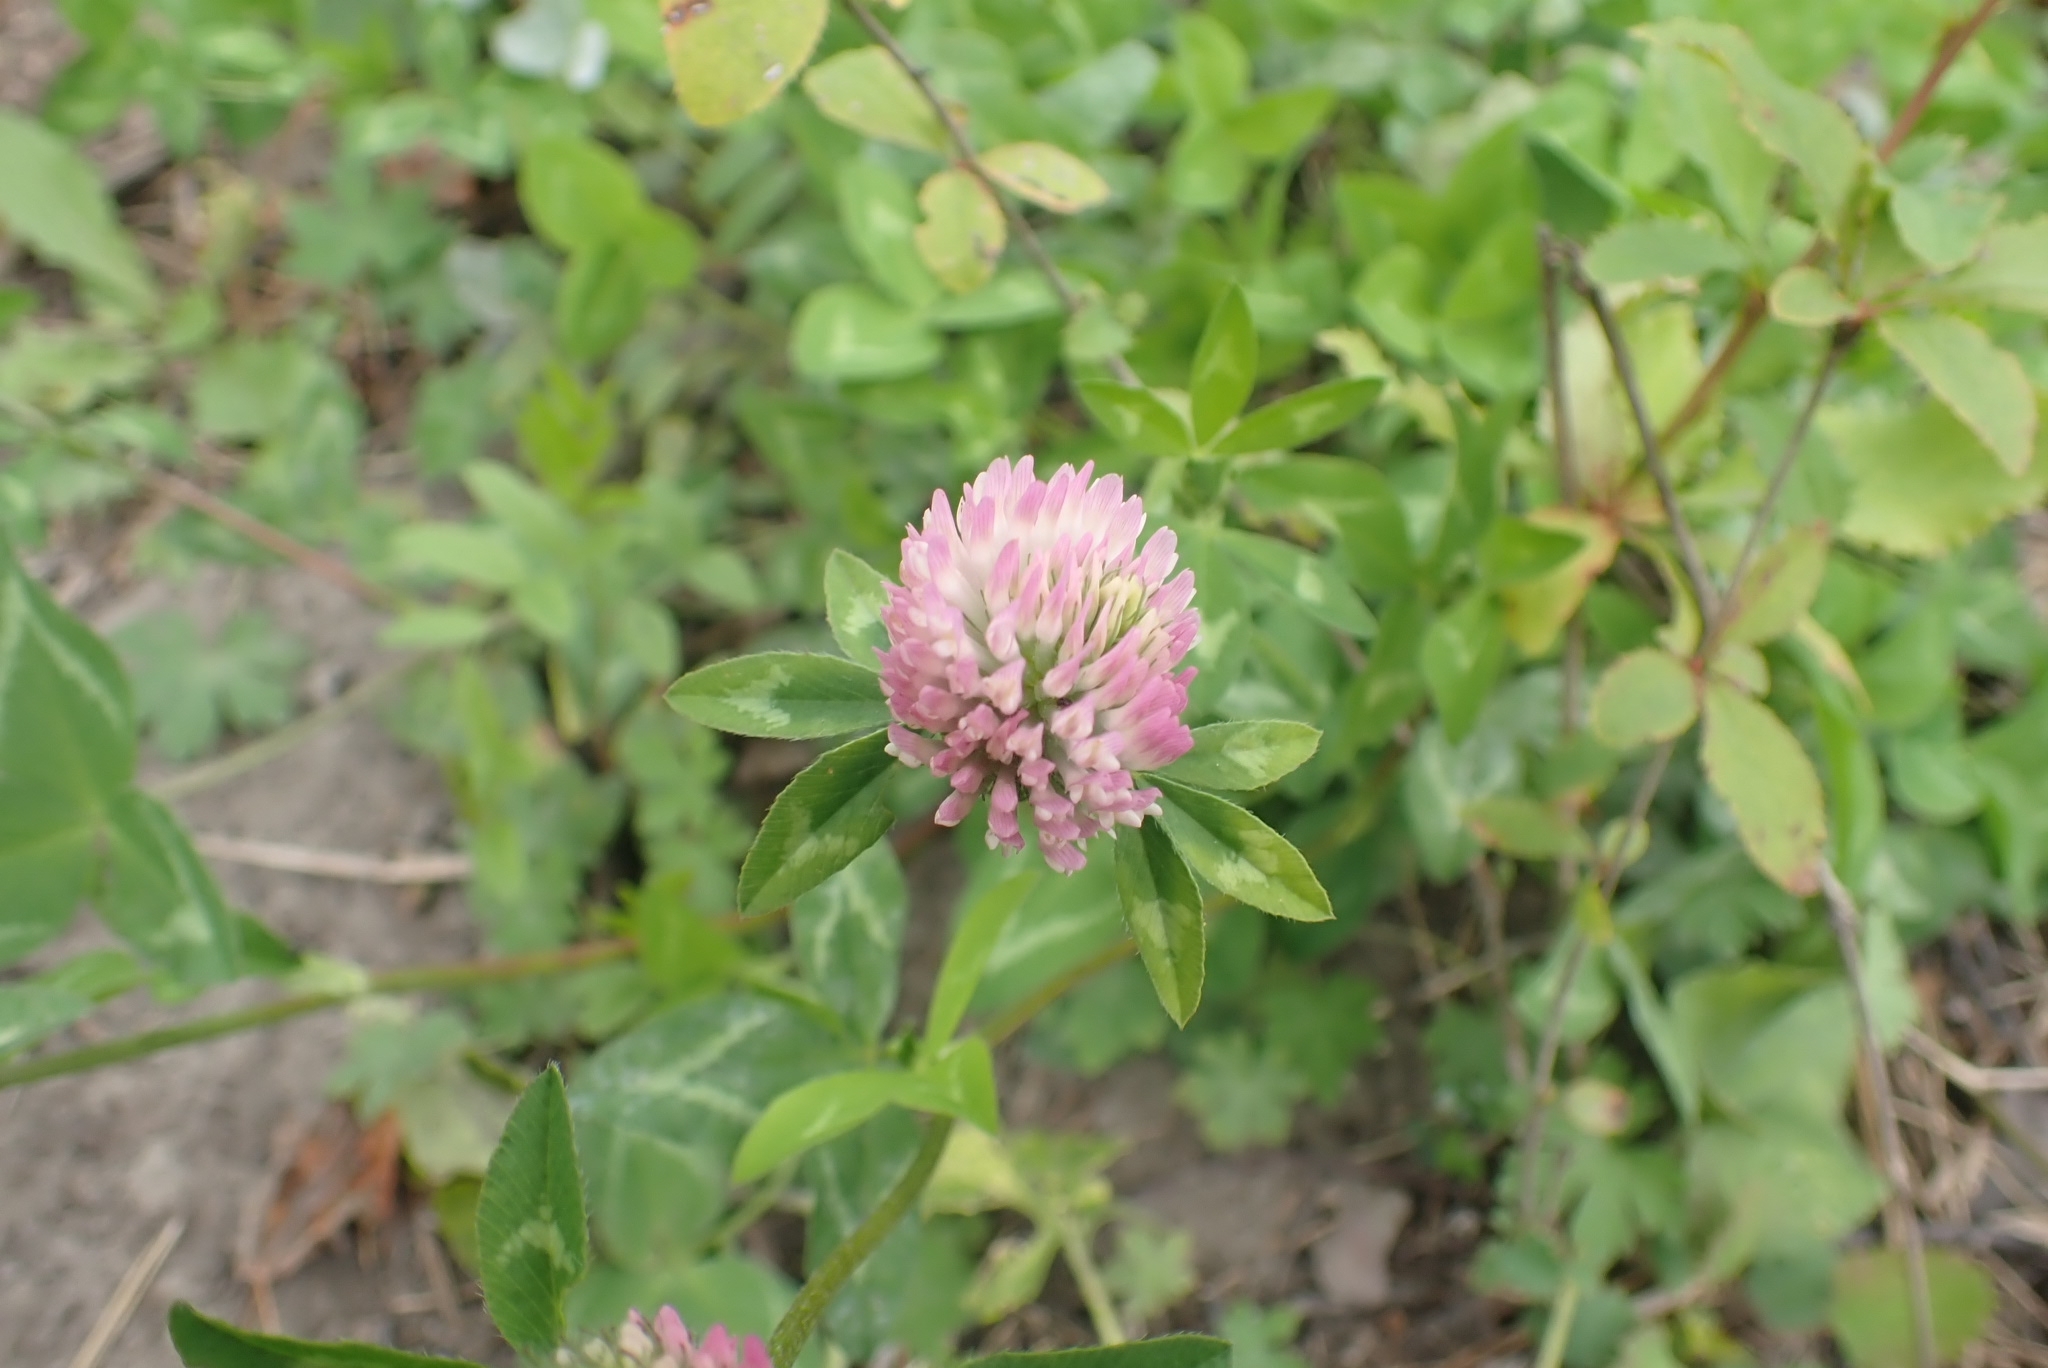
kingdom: Plantae
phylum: Tracheophyta
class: Magnoliopsida
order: Fabales
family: Fabaceae
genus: Trifolium
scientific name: Trifolium pratense
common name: Red clover
